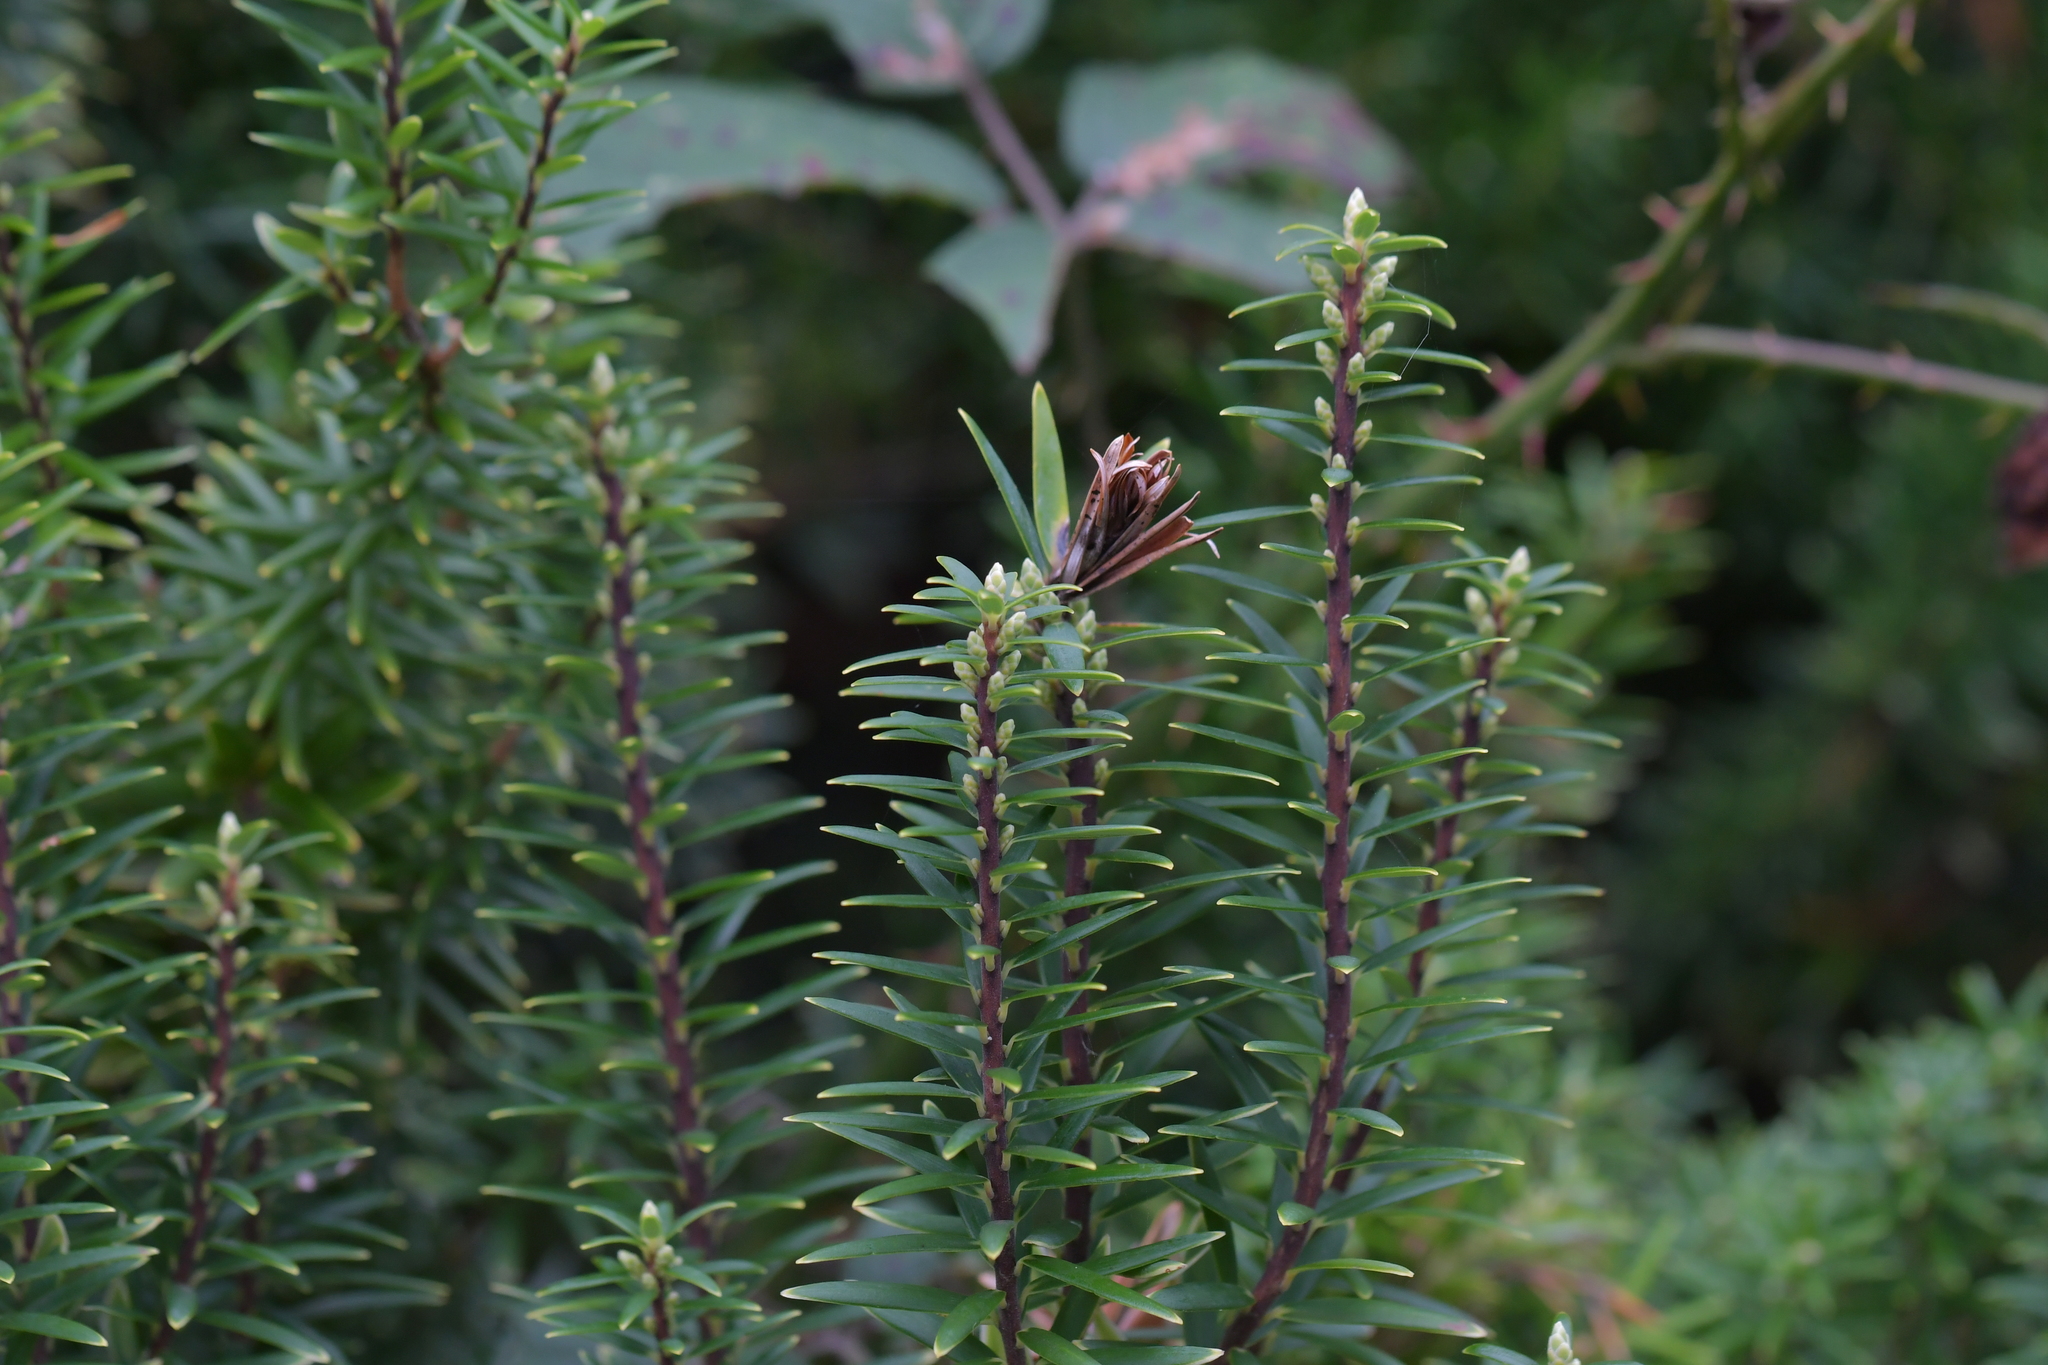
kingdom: Plantae
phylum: Tracheophyta
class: Magnoliopsida
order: Ericales
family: Ericaceae
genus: Leptecophylla
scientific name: Leptecophylla parvifolia
